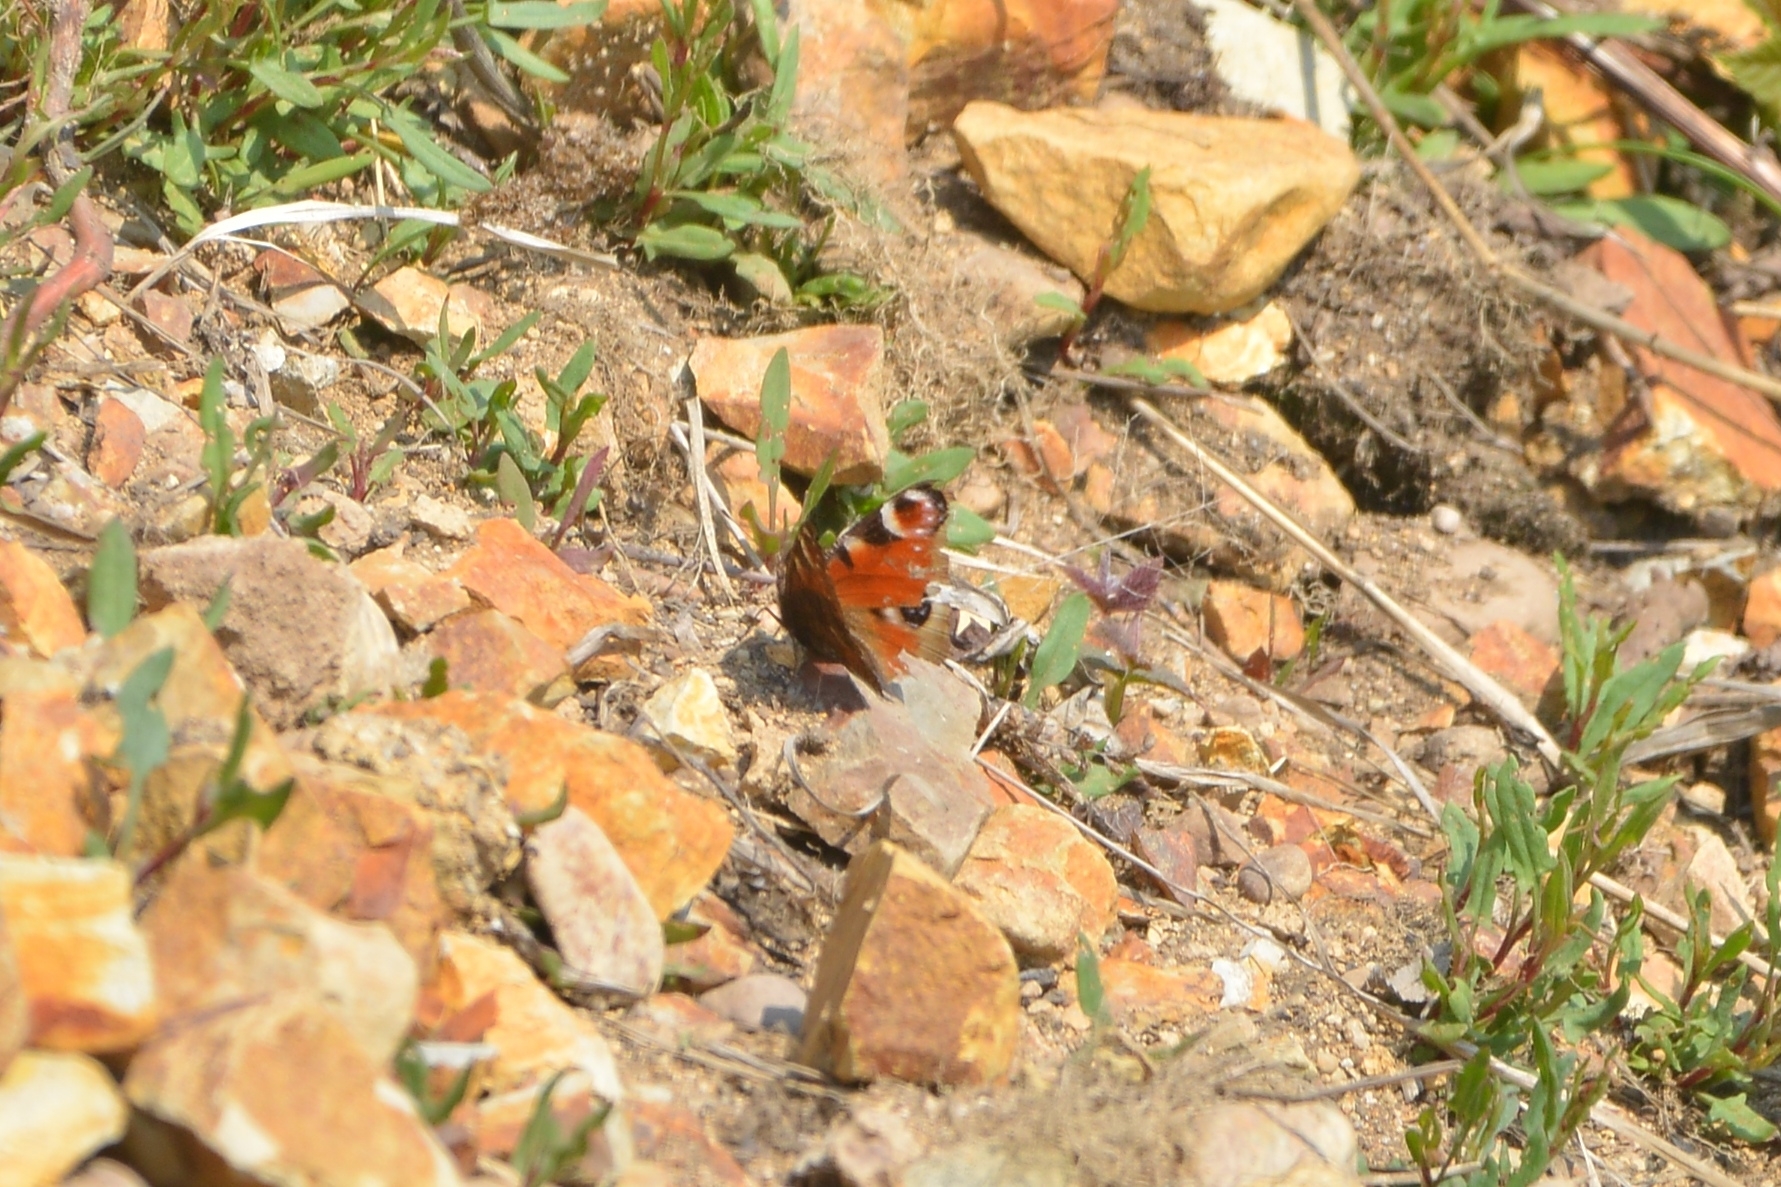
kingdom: Animalia
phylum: Arthropoda
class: Insecta
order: Lepidoptera
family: Nymphalidae
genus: Aglais
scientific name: Aglais io
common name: Peacock
